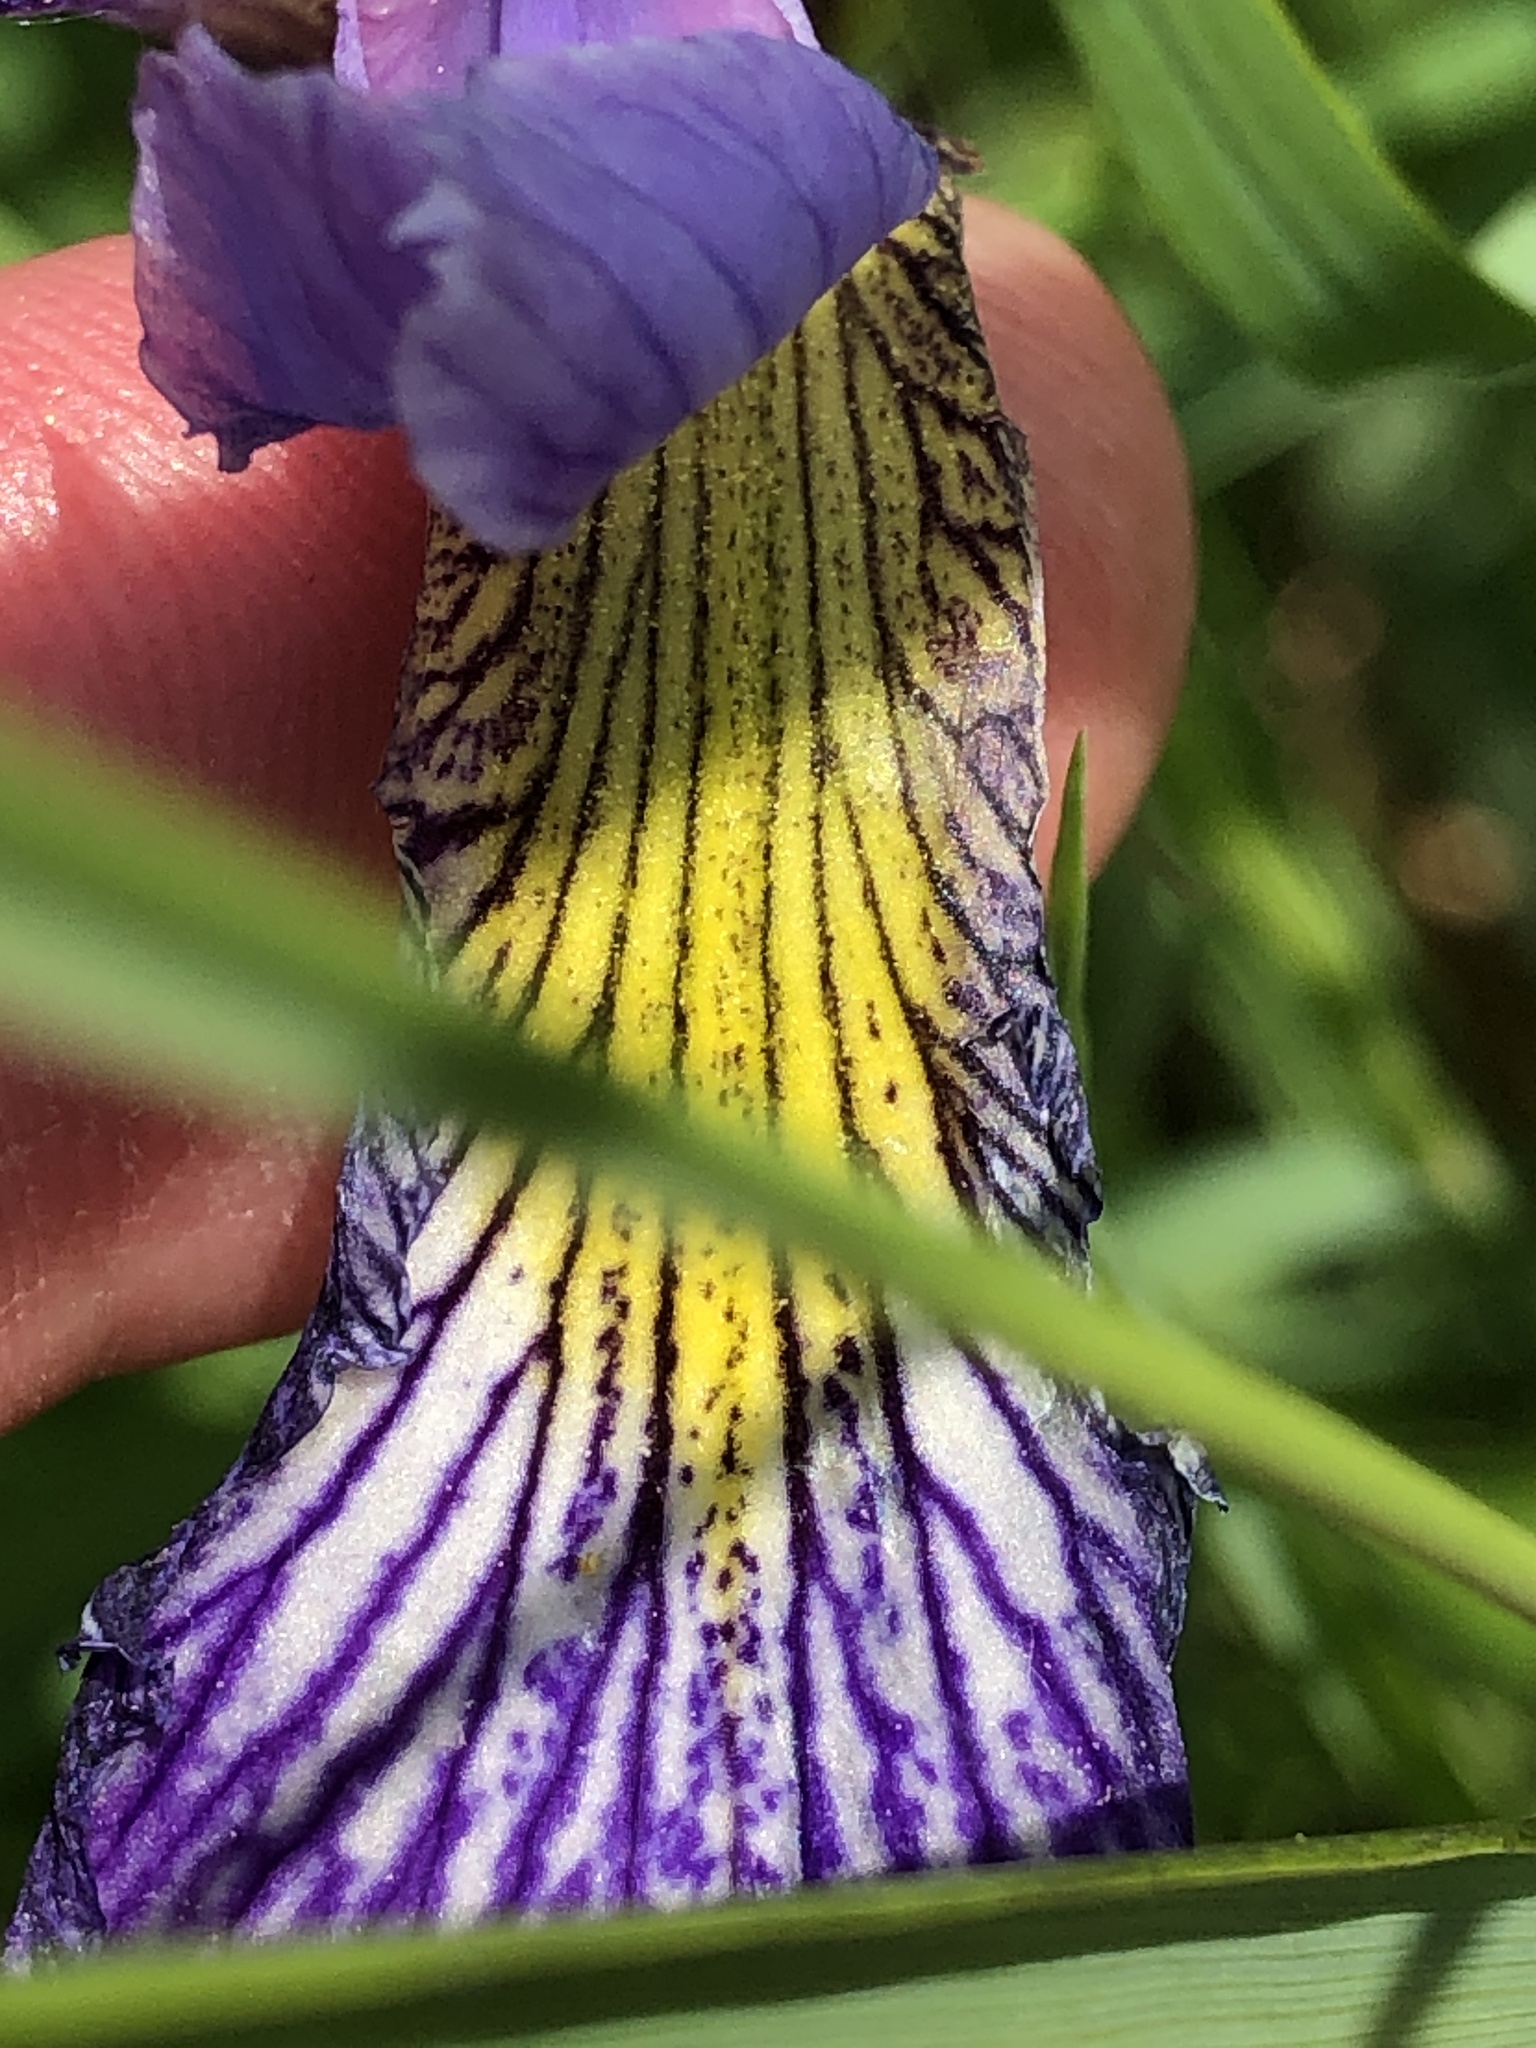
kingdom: Plantae
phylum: Tracheophyta
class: Liliopsida
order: Asparagales
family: Iridaceae
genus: Iris
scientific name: Iris virginica
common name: Southern blue flag
